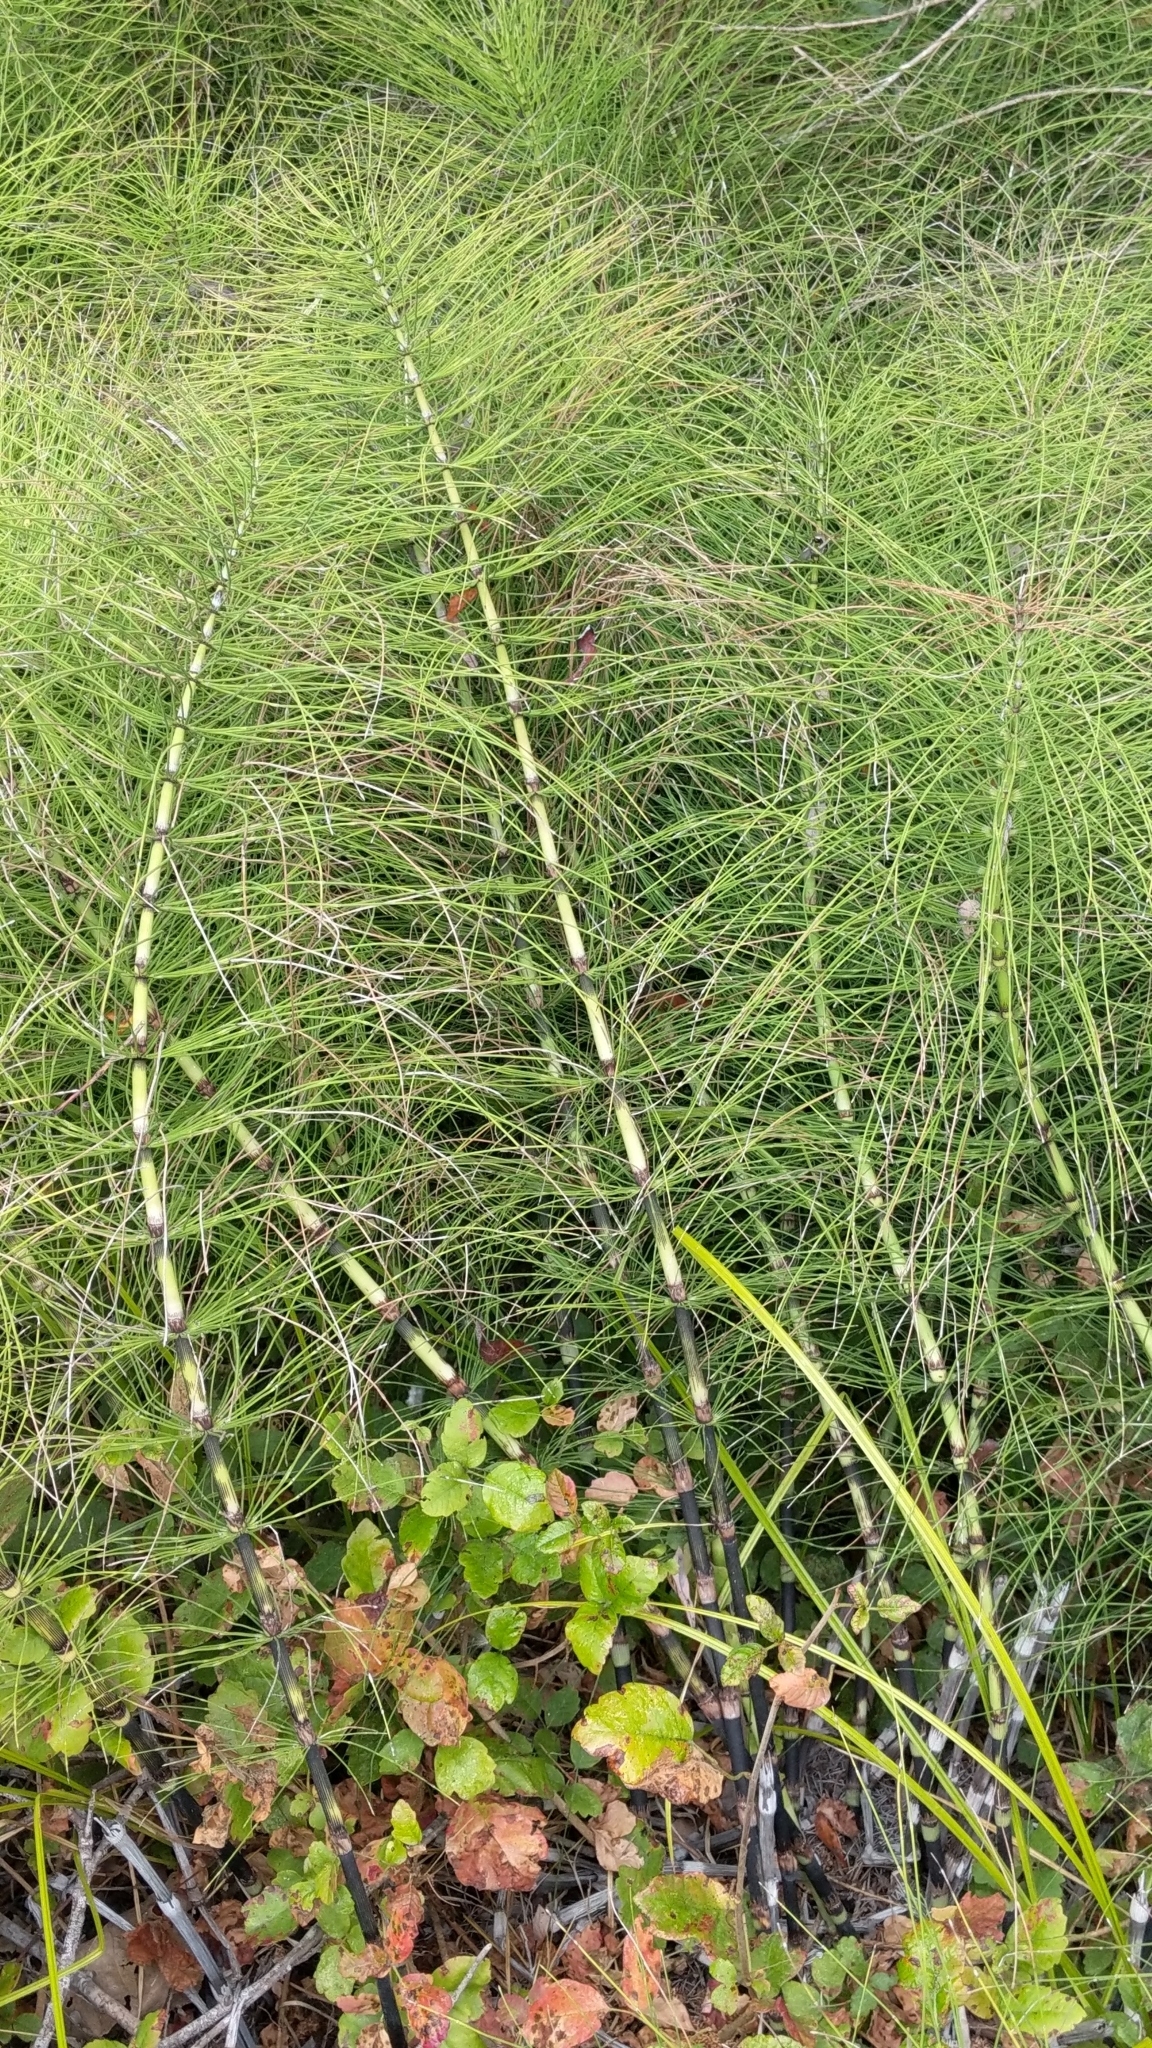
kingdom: Plantae
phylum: Tracheophyta
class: Polypodiopsida
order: Equisetales
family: Equisetaceae
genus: Equisetum
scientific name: Equisetum telmateia
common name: Great horsetail
